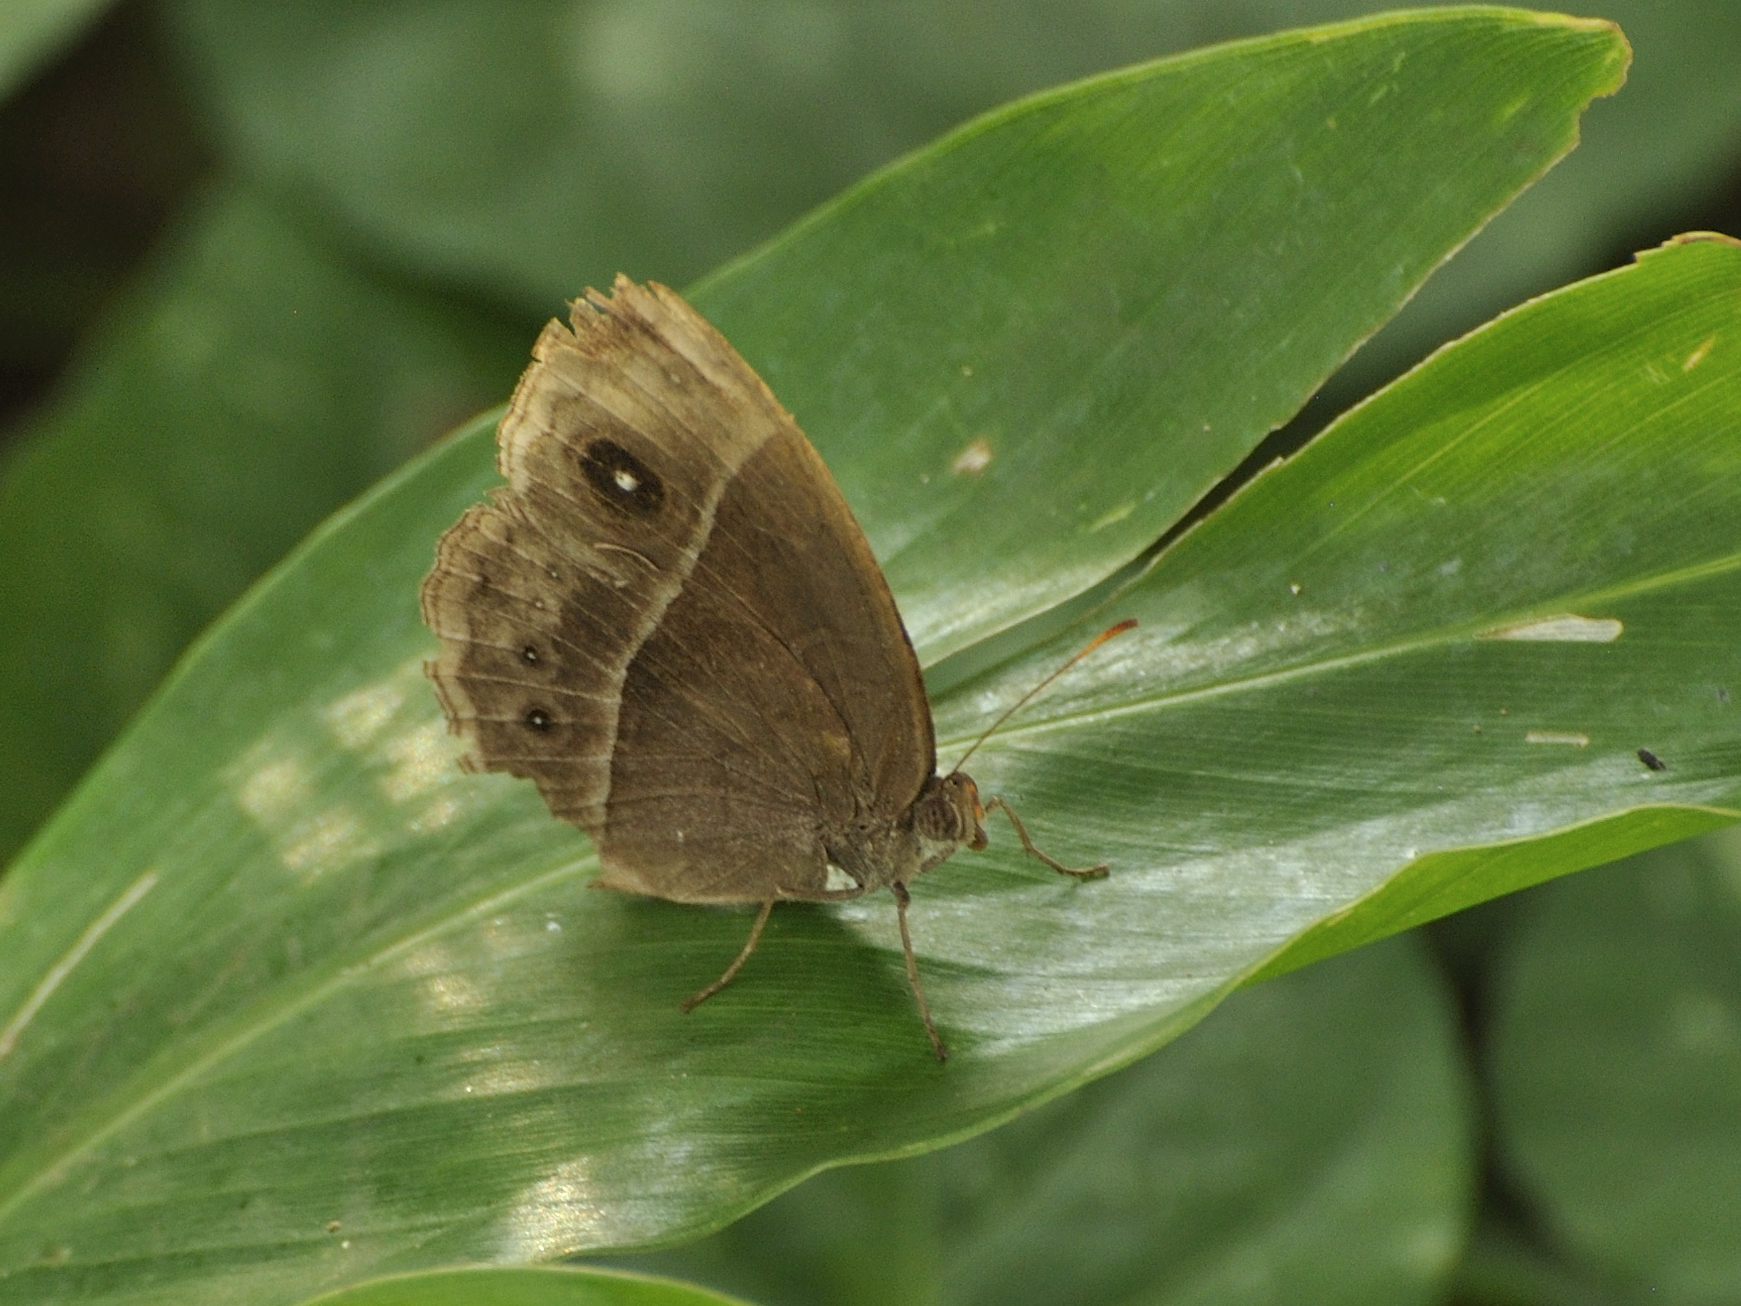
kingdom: Animalia
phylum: Arthropoda
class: Insecta
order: Lepidoptera
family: Nymphalidae
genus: Mycalesis
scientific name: Mycalesis rhacotis
